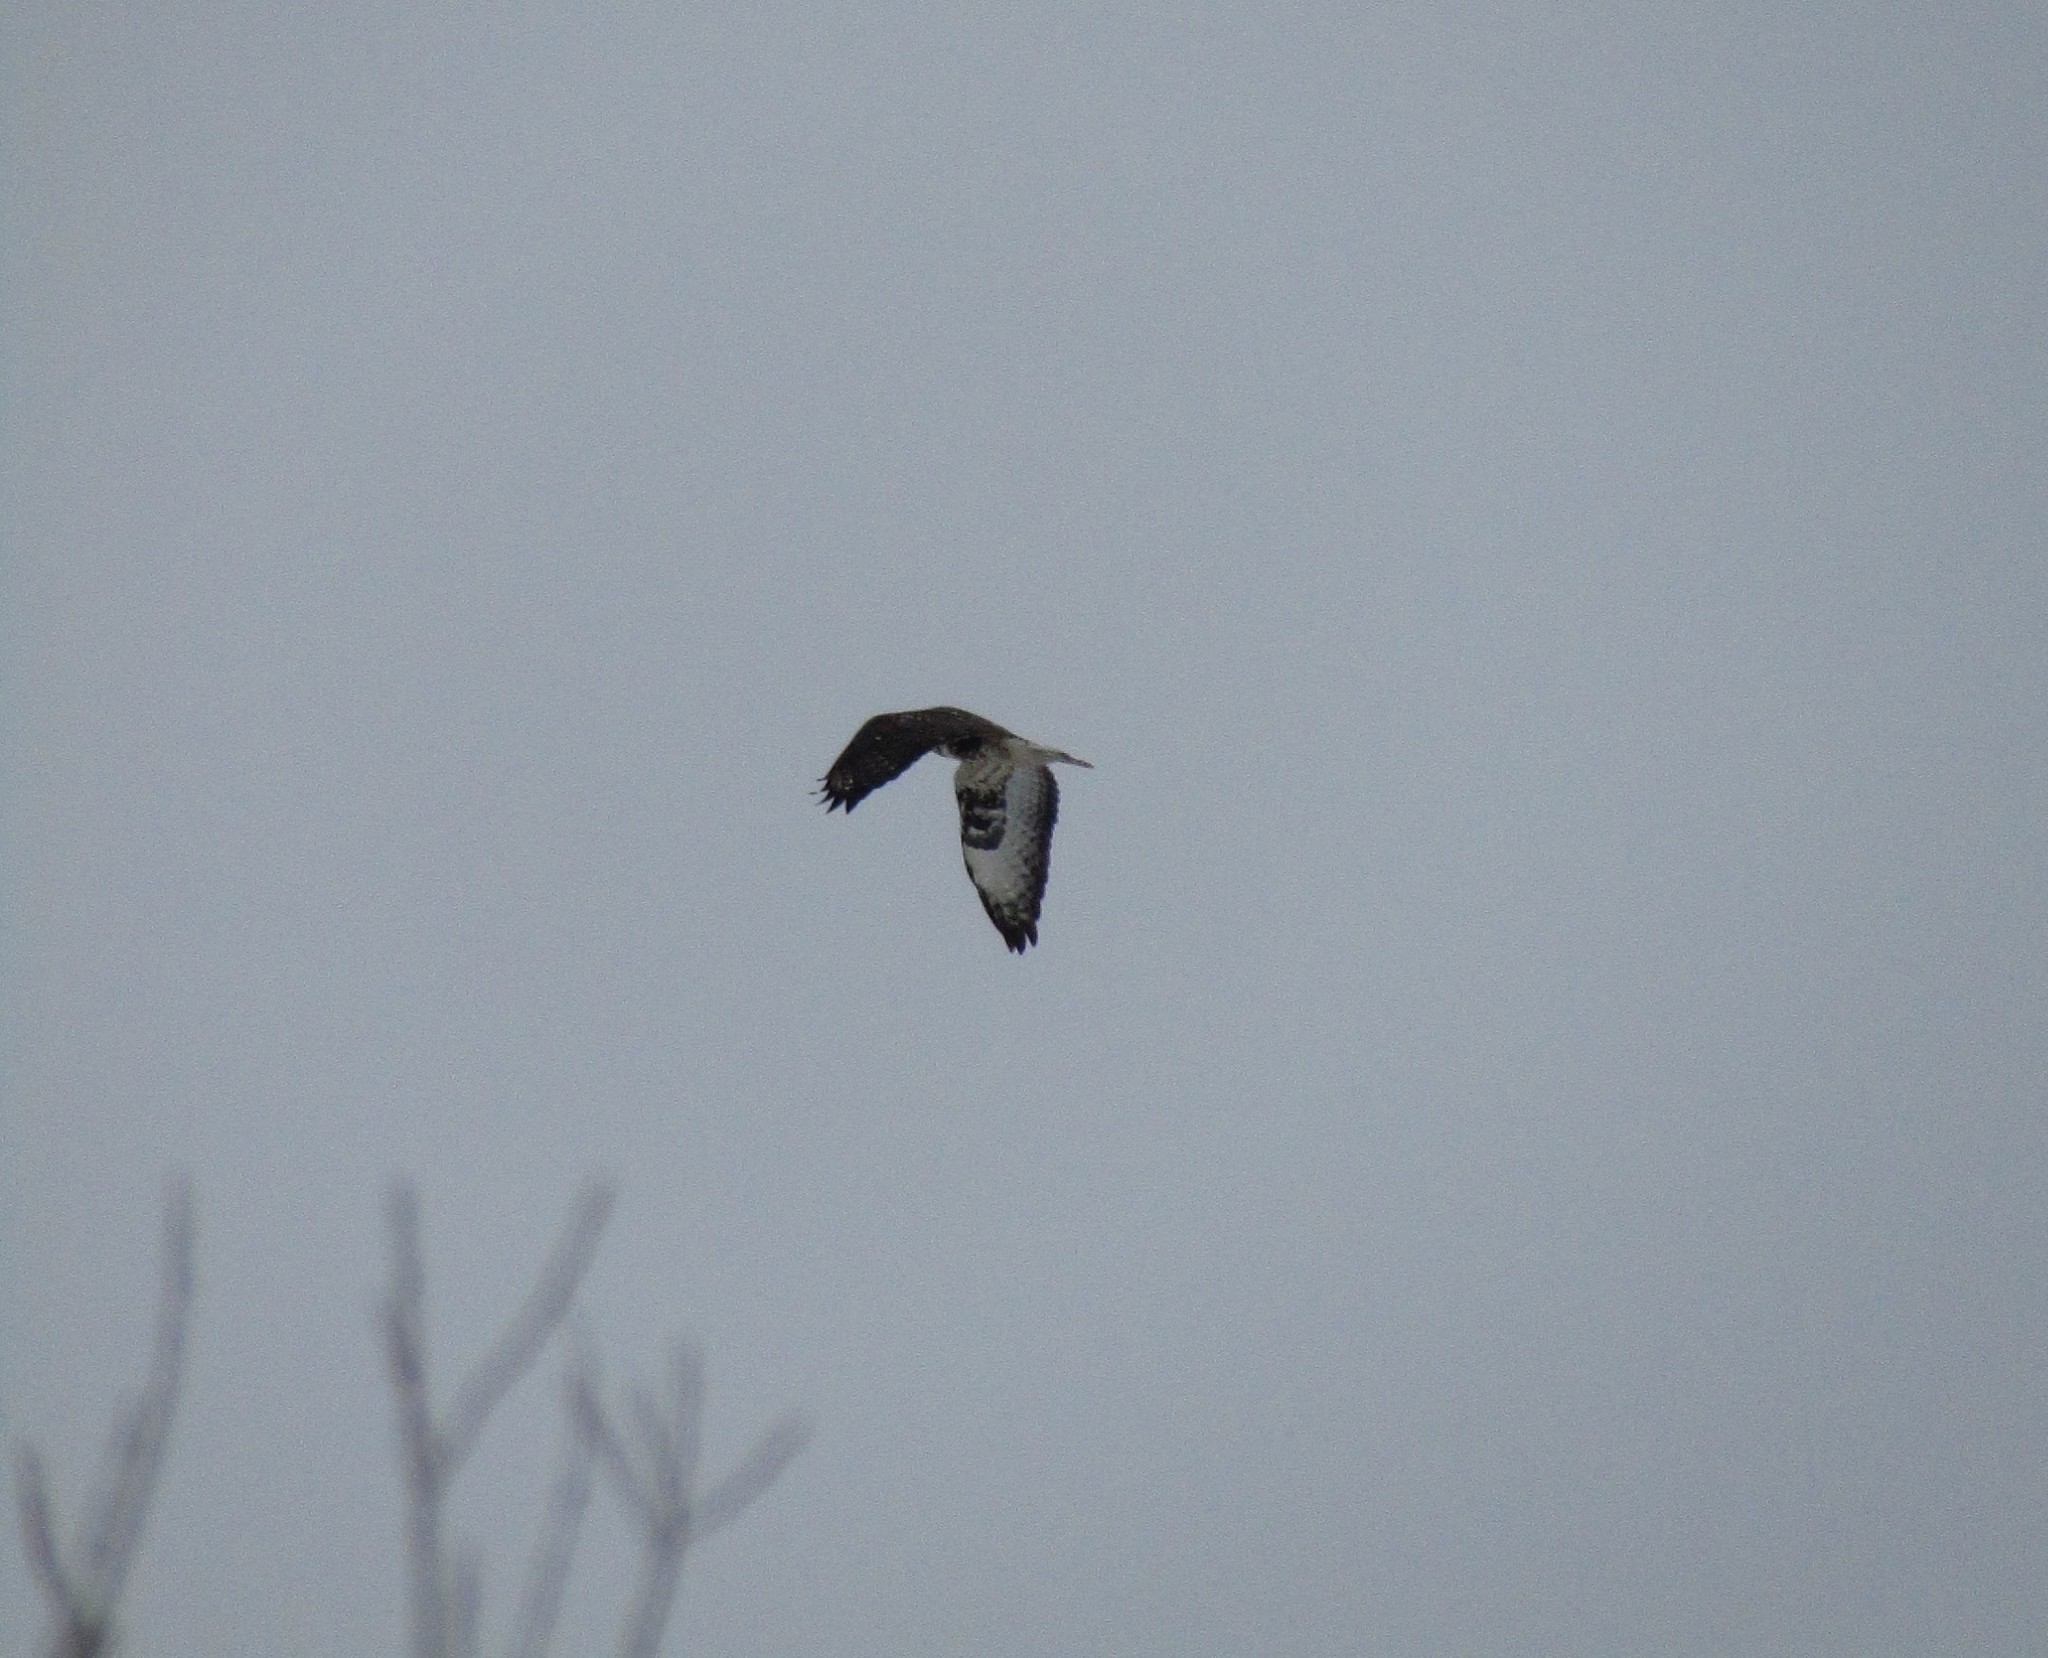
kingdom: Animalia
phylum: Chordata
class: Aves
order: Accipitriformes
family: Accipitridae
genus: Buteo
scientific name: Buteo lagopus
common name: Rough-legged buzzard
